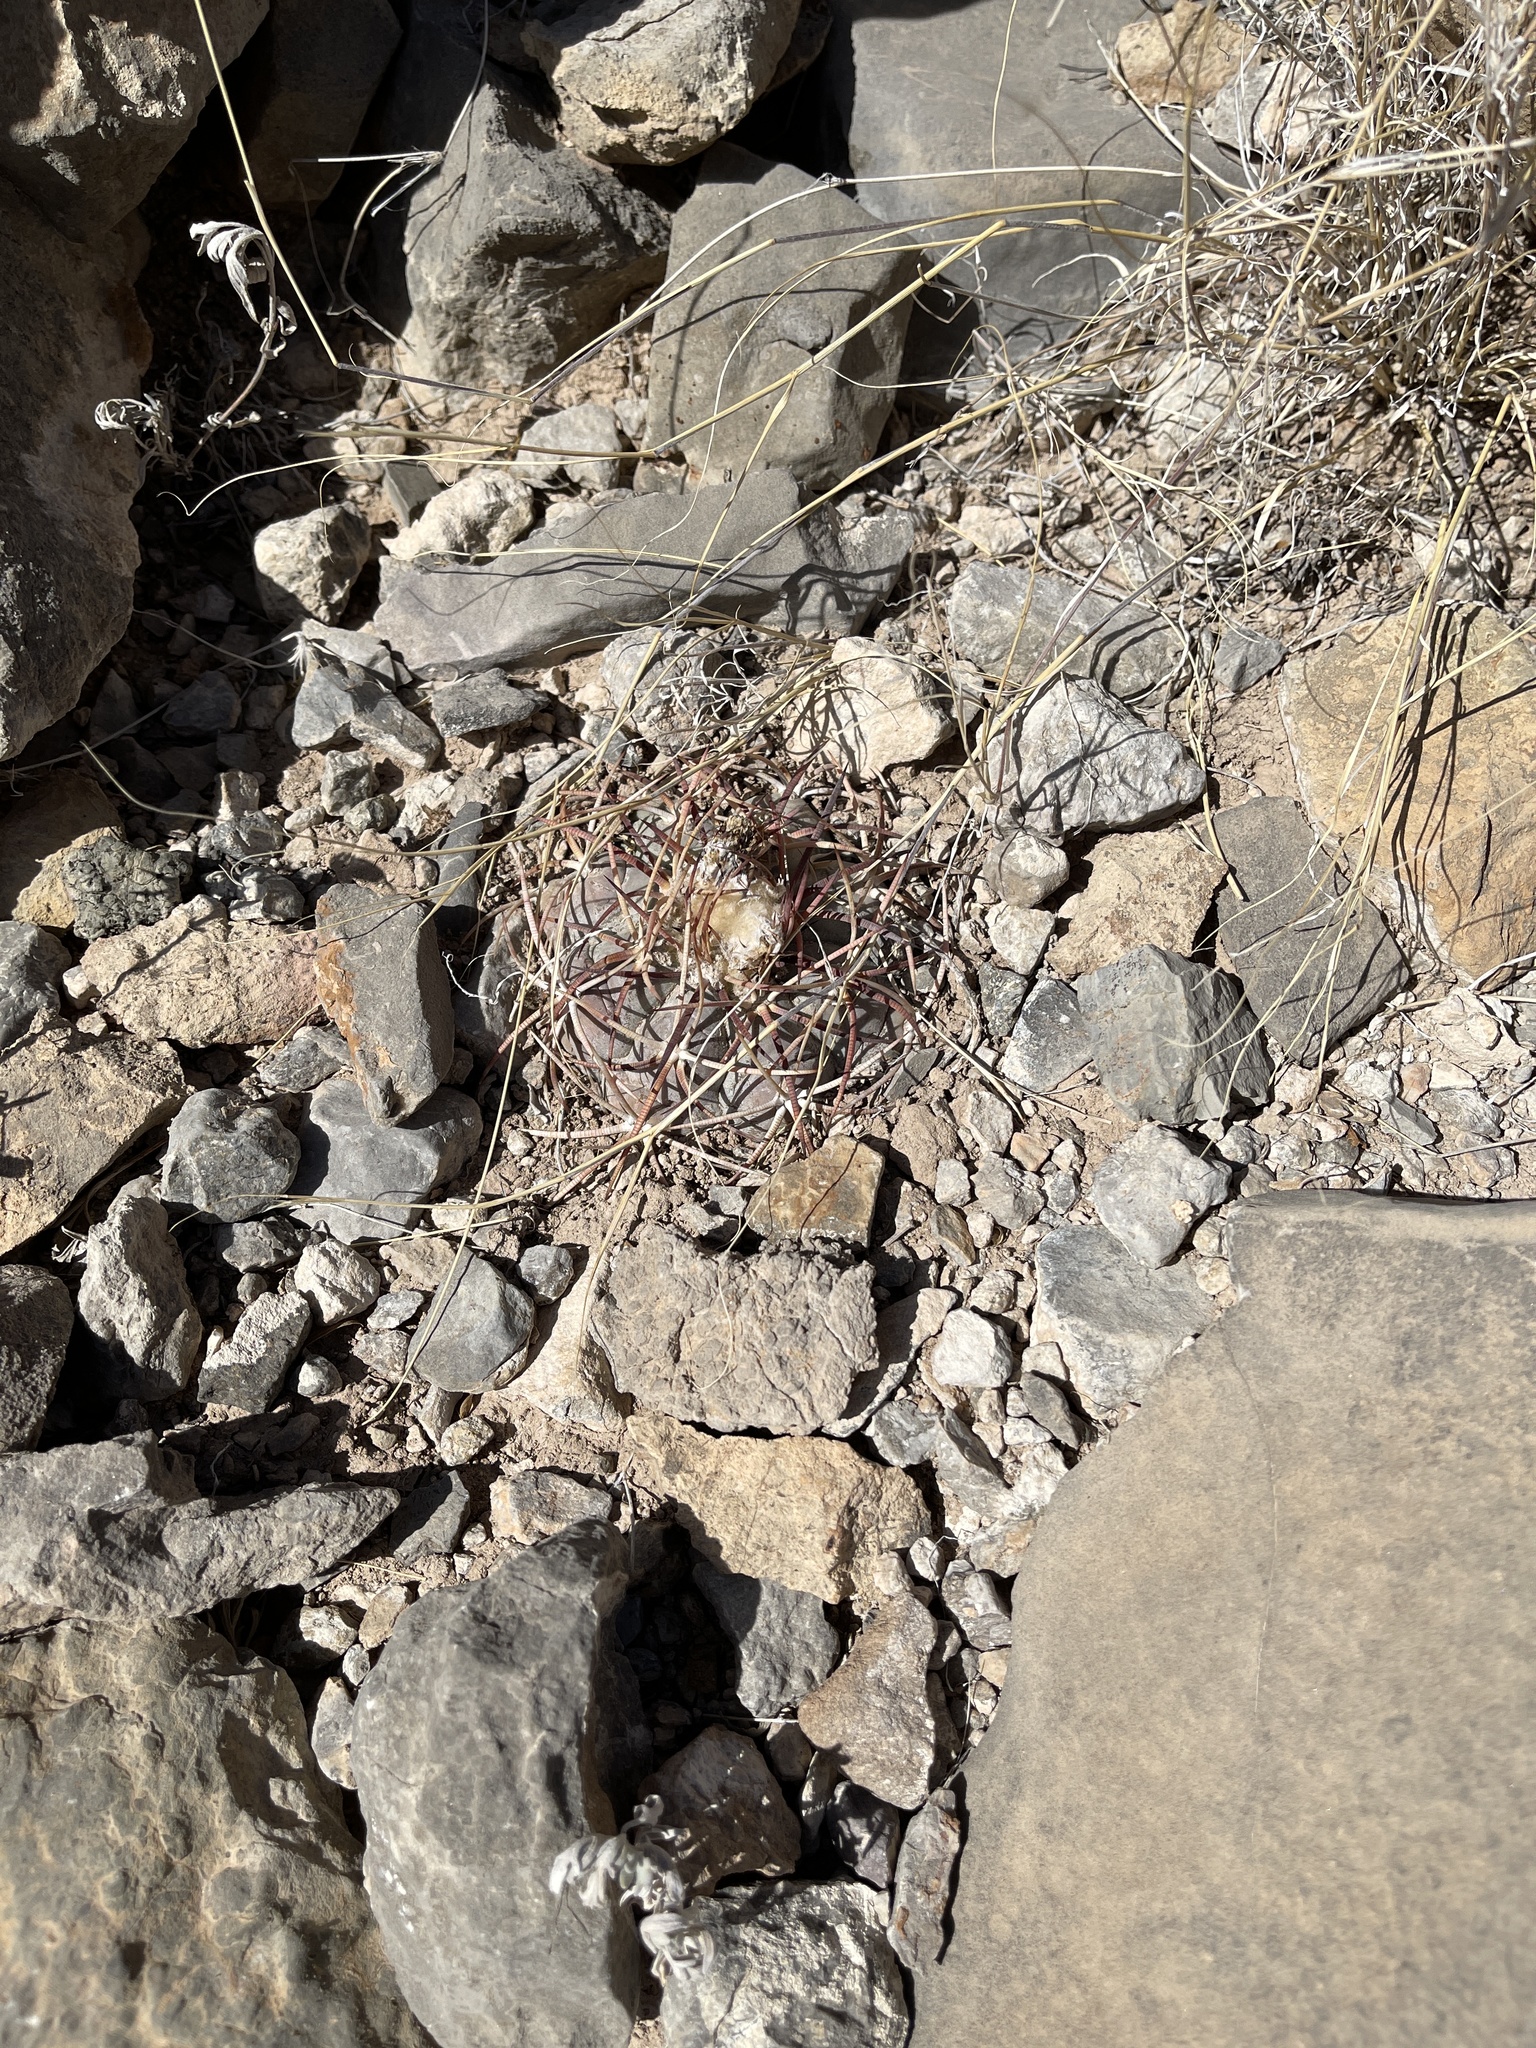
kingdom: Plantae
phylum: Tracheophyta
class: Magnoliopsida
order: Caryophyllales
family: Cactaceae
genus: Echinocactus
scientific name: Echinocactus horizonthalonius
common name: Devilshead
